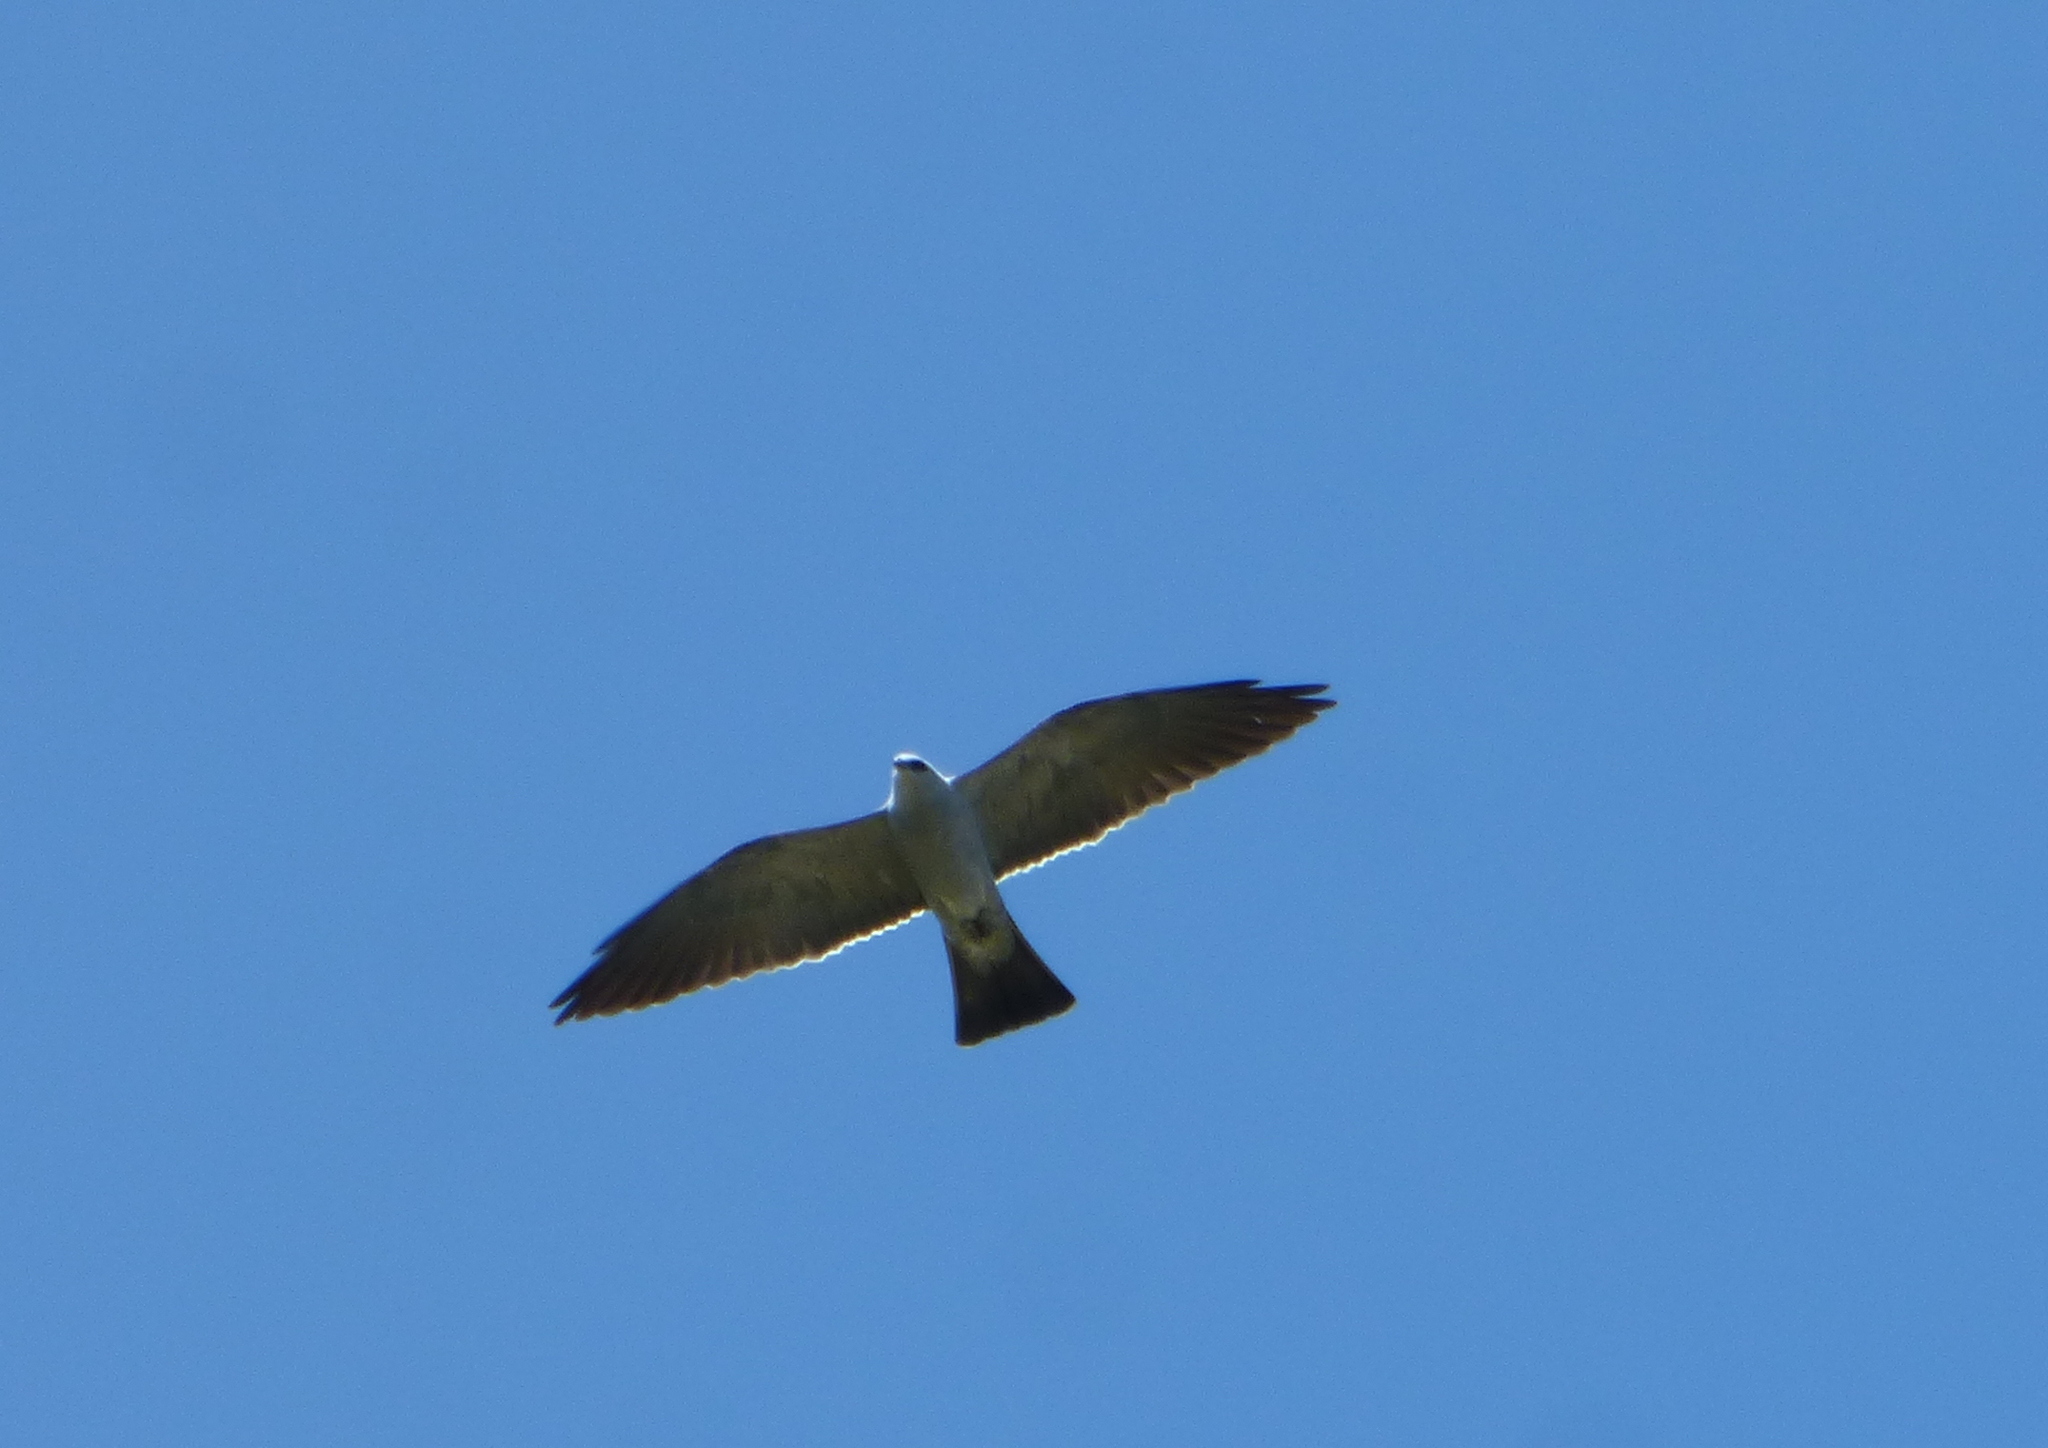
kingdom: Animalia
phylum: Chordata
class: Aves
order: Accipitriformes
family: Accipitridae
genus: Ictinia
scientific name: Ictinia mississippiensis
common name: Mississippi kite
